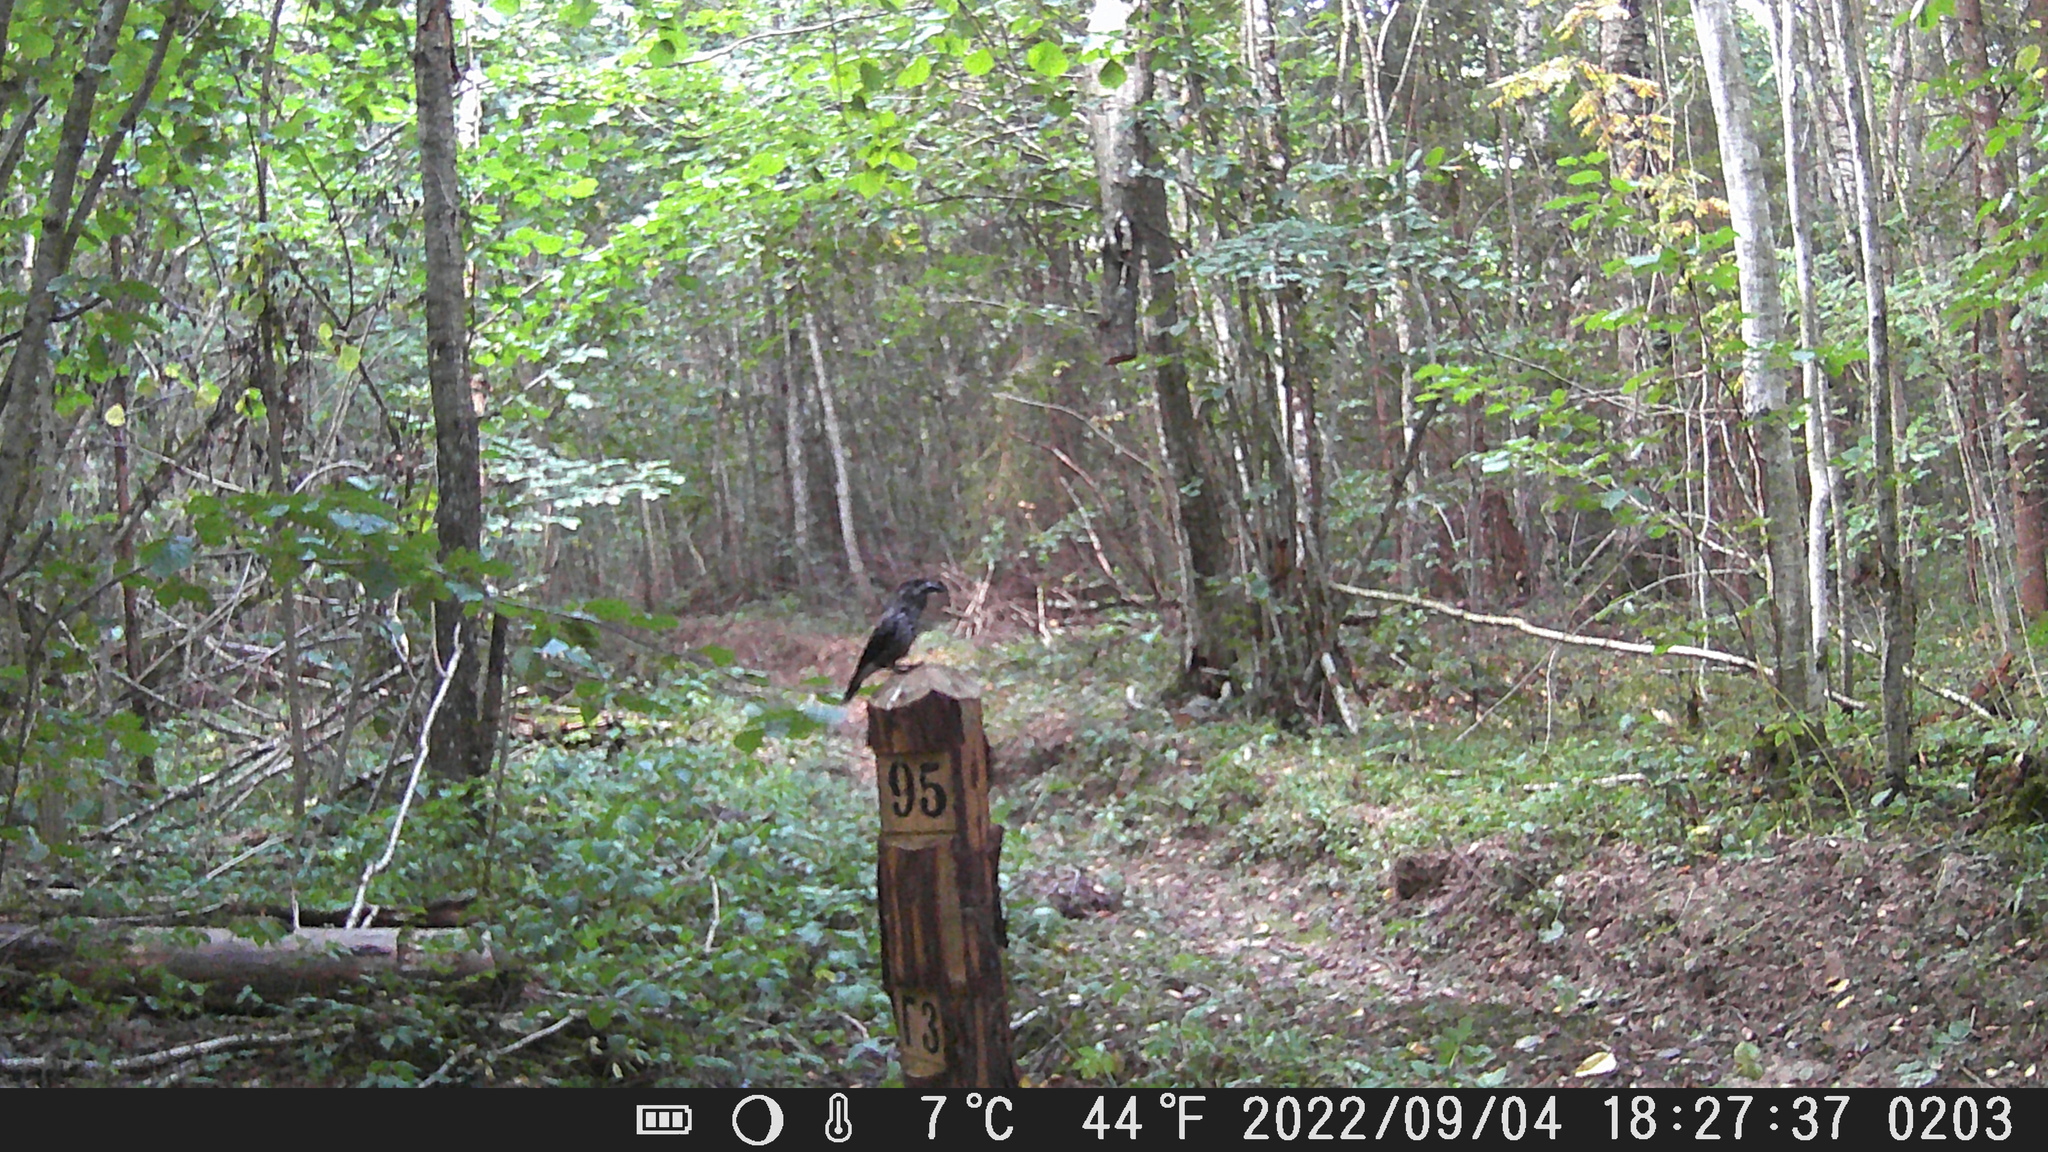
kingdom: Animalia
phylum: Chordata
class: Aves
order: Passeriformes
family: Corvidae
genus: Nucifraga
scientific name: Nucifraga caryocatactes
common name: Spotted nutcracker
